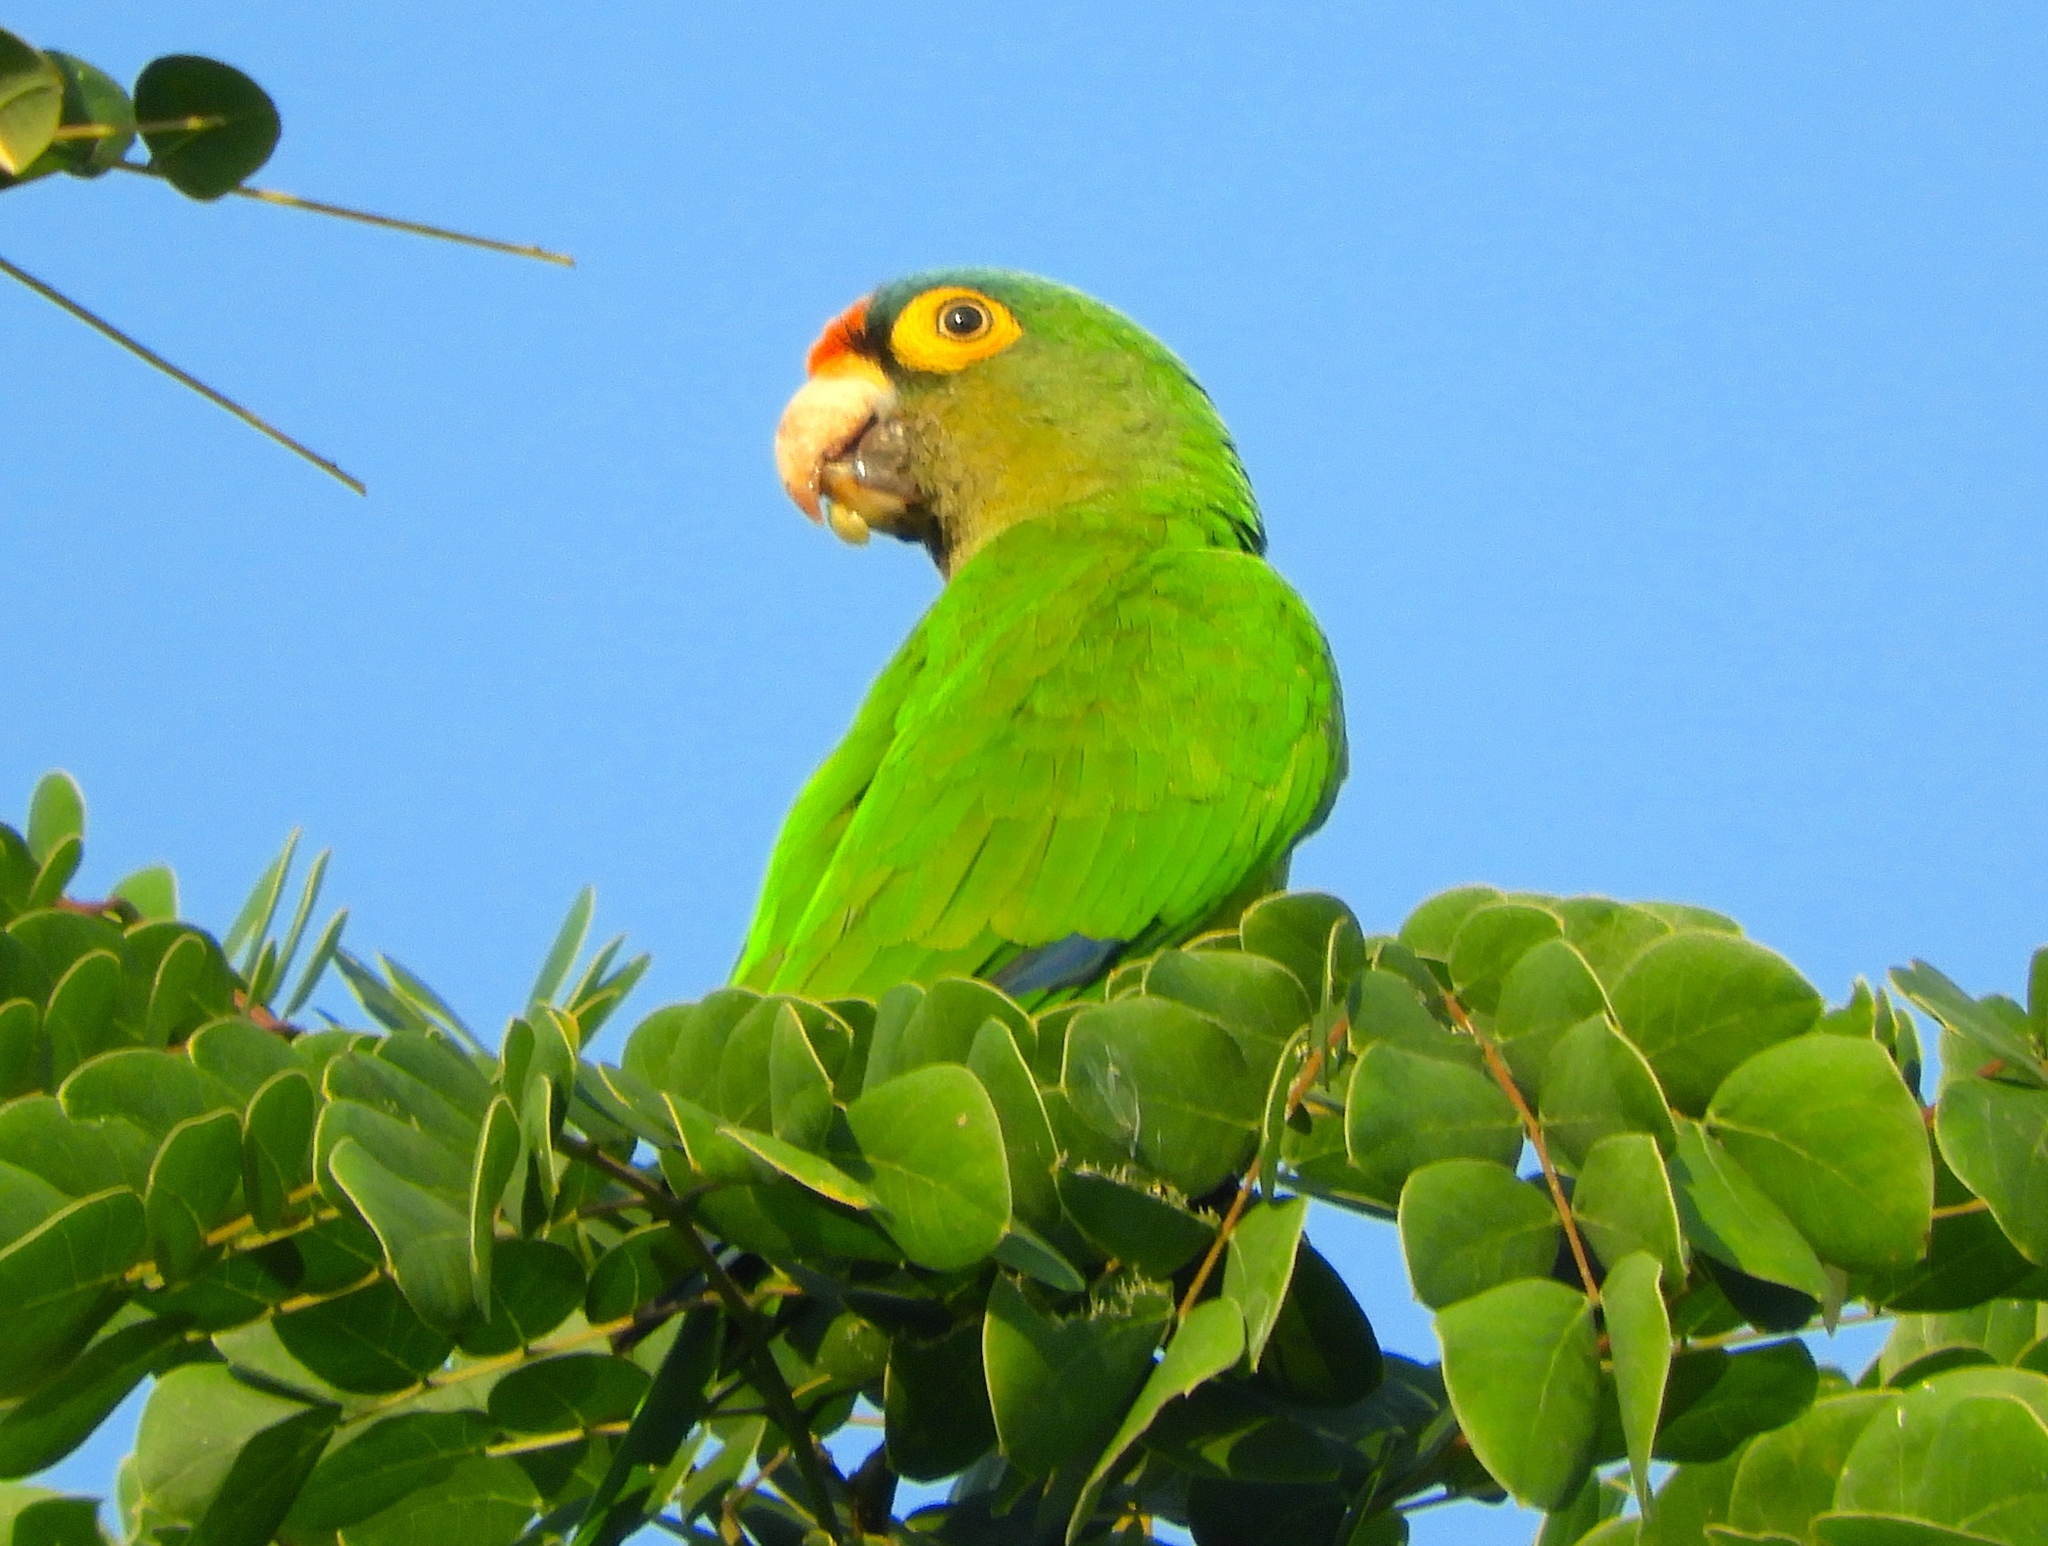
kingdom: Animalia
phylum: Chordata
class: Aves
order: Psittaciformes
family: Psittacidae
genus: Aratinga
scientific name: Aratinga canicularis
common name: Orange-fronted parakeet
